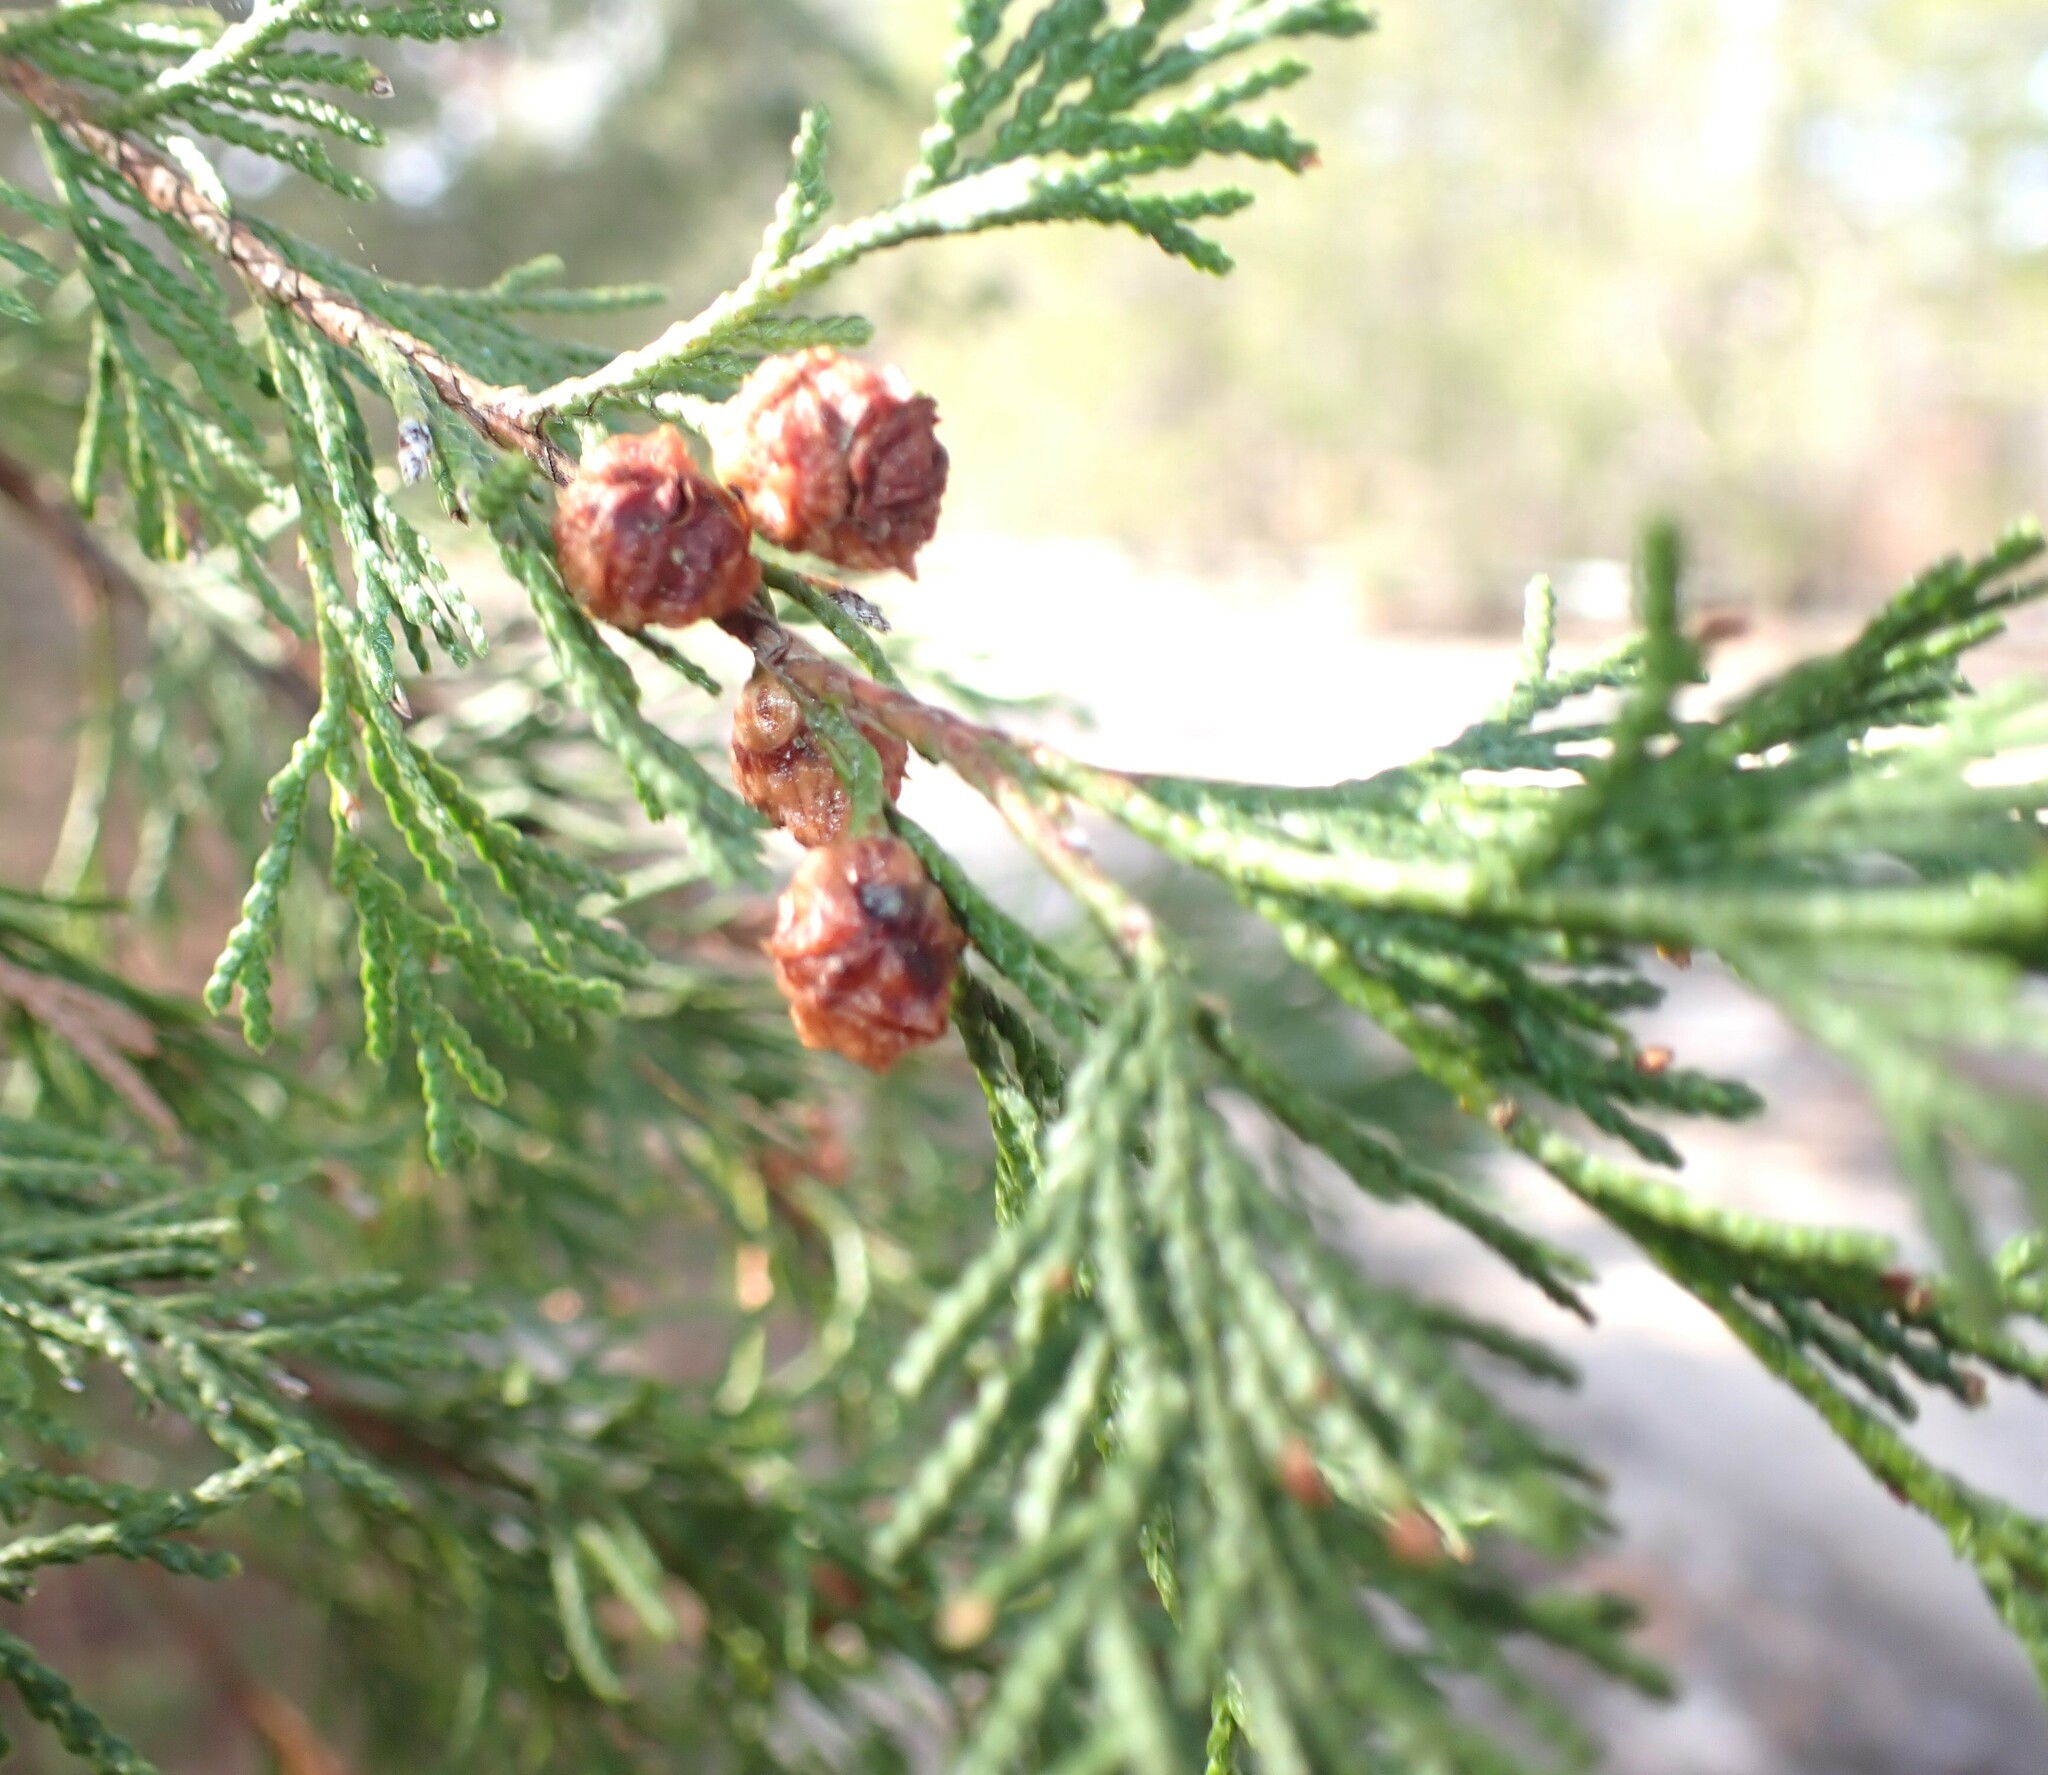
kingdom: Plantae
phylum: Tracheophyta
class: Pinopsida
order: Pinales
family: Cupressaceae
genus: Chamaecyparis
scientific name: Chamaecyparis thyoides
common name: Atlantic white cedar
